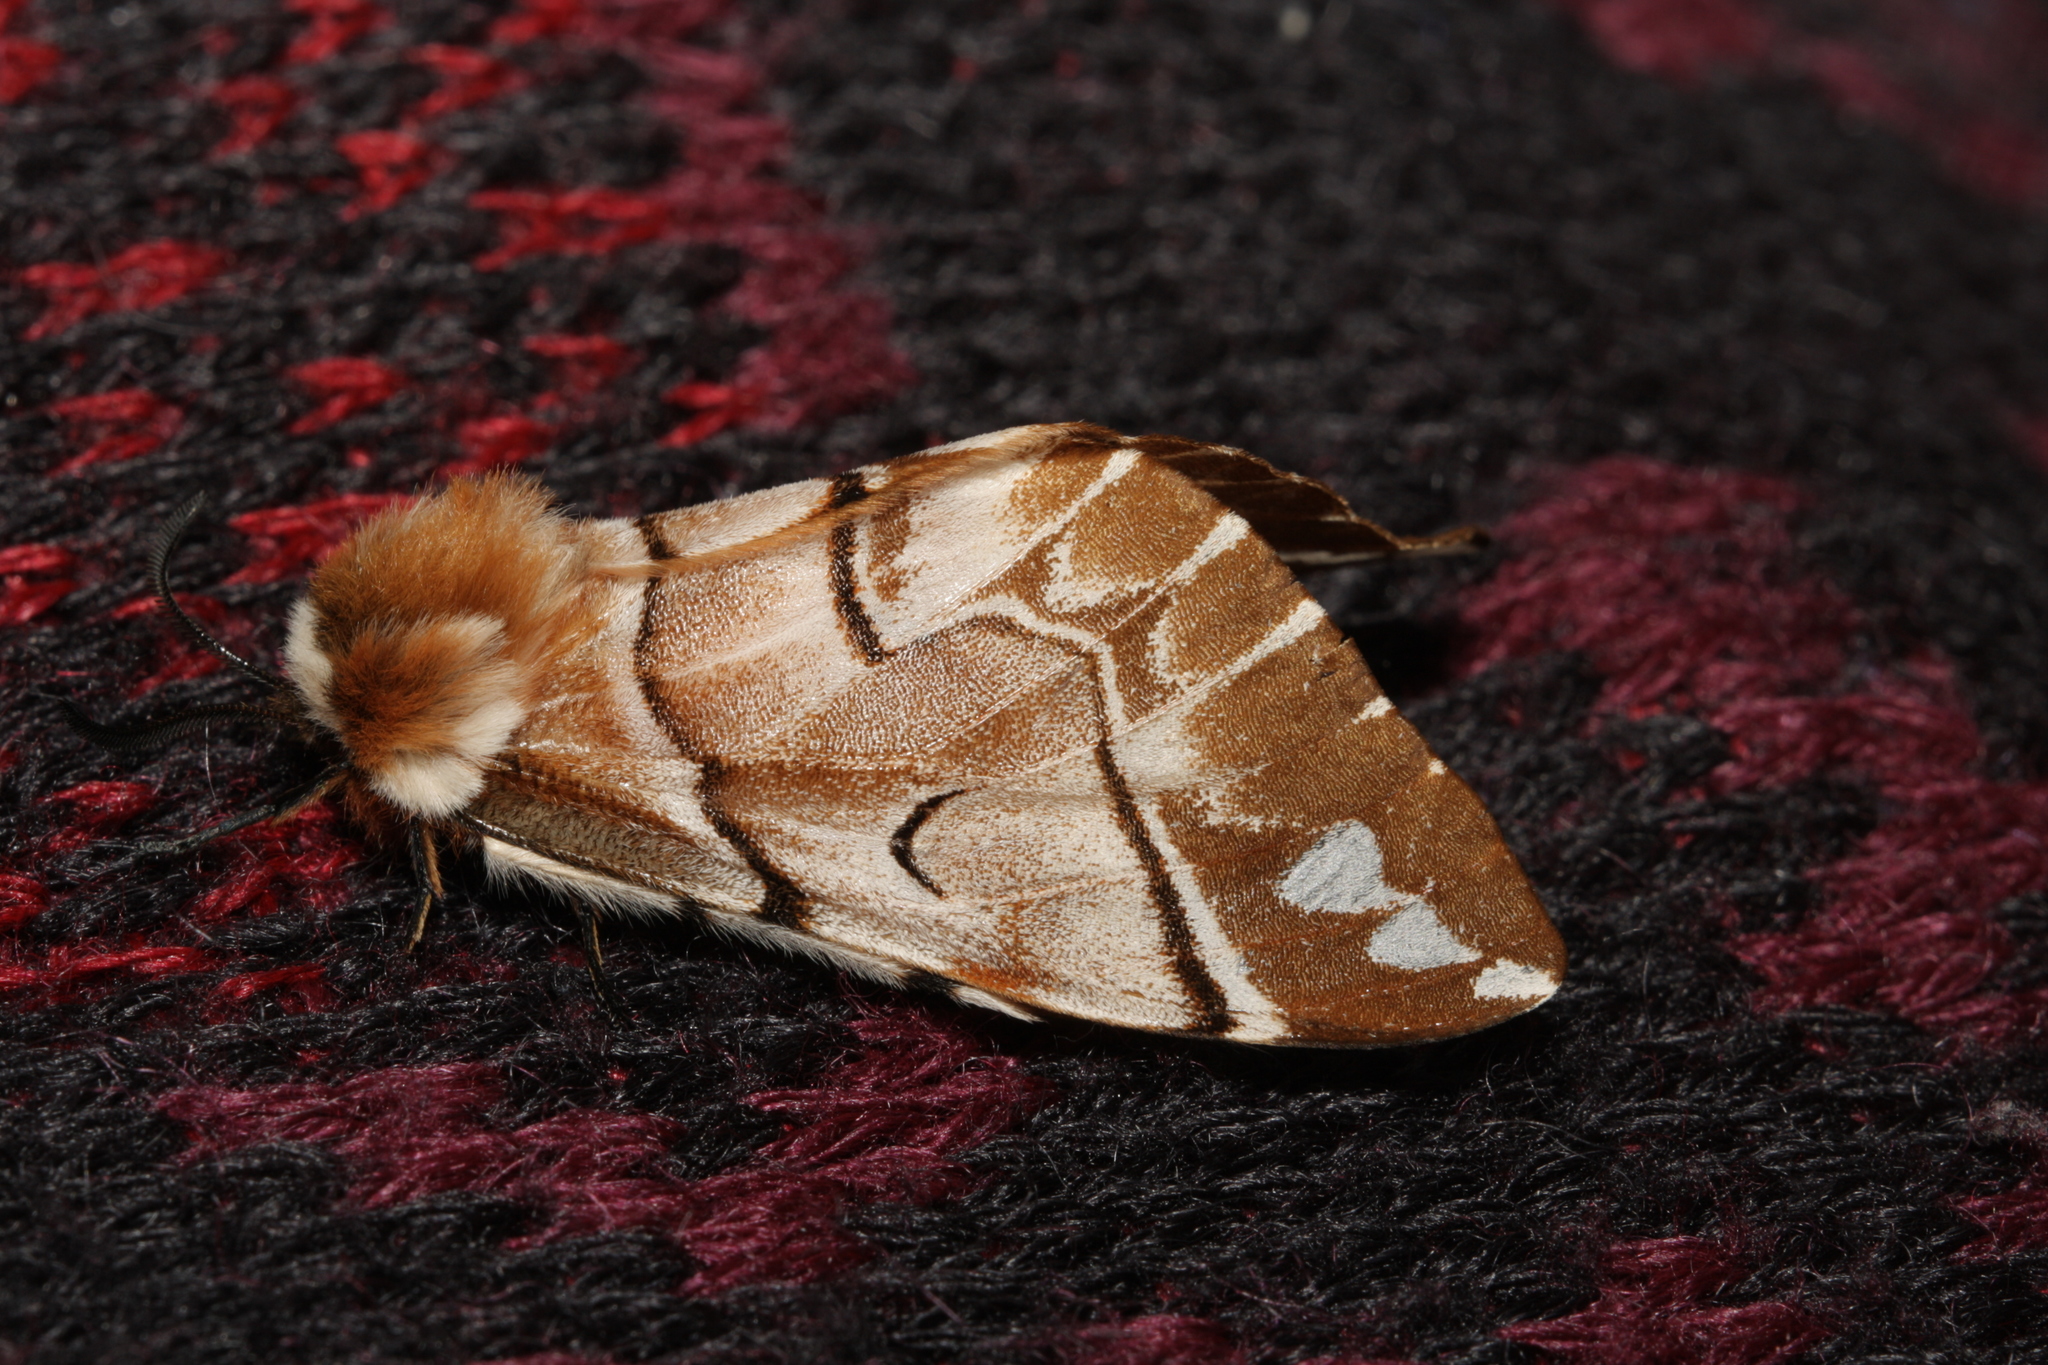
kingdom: Animalia
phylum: Arthropoda
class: Insecta
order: Lepidoptera
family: Endromidae
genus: Endromis
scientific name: Endromis versicolora
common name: Kentish glory
